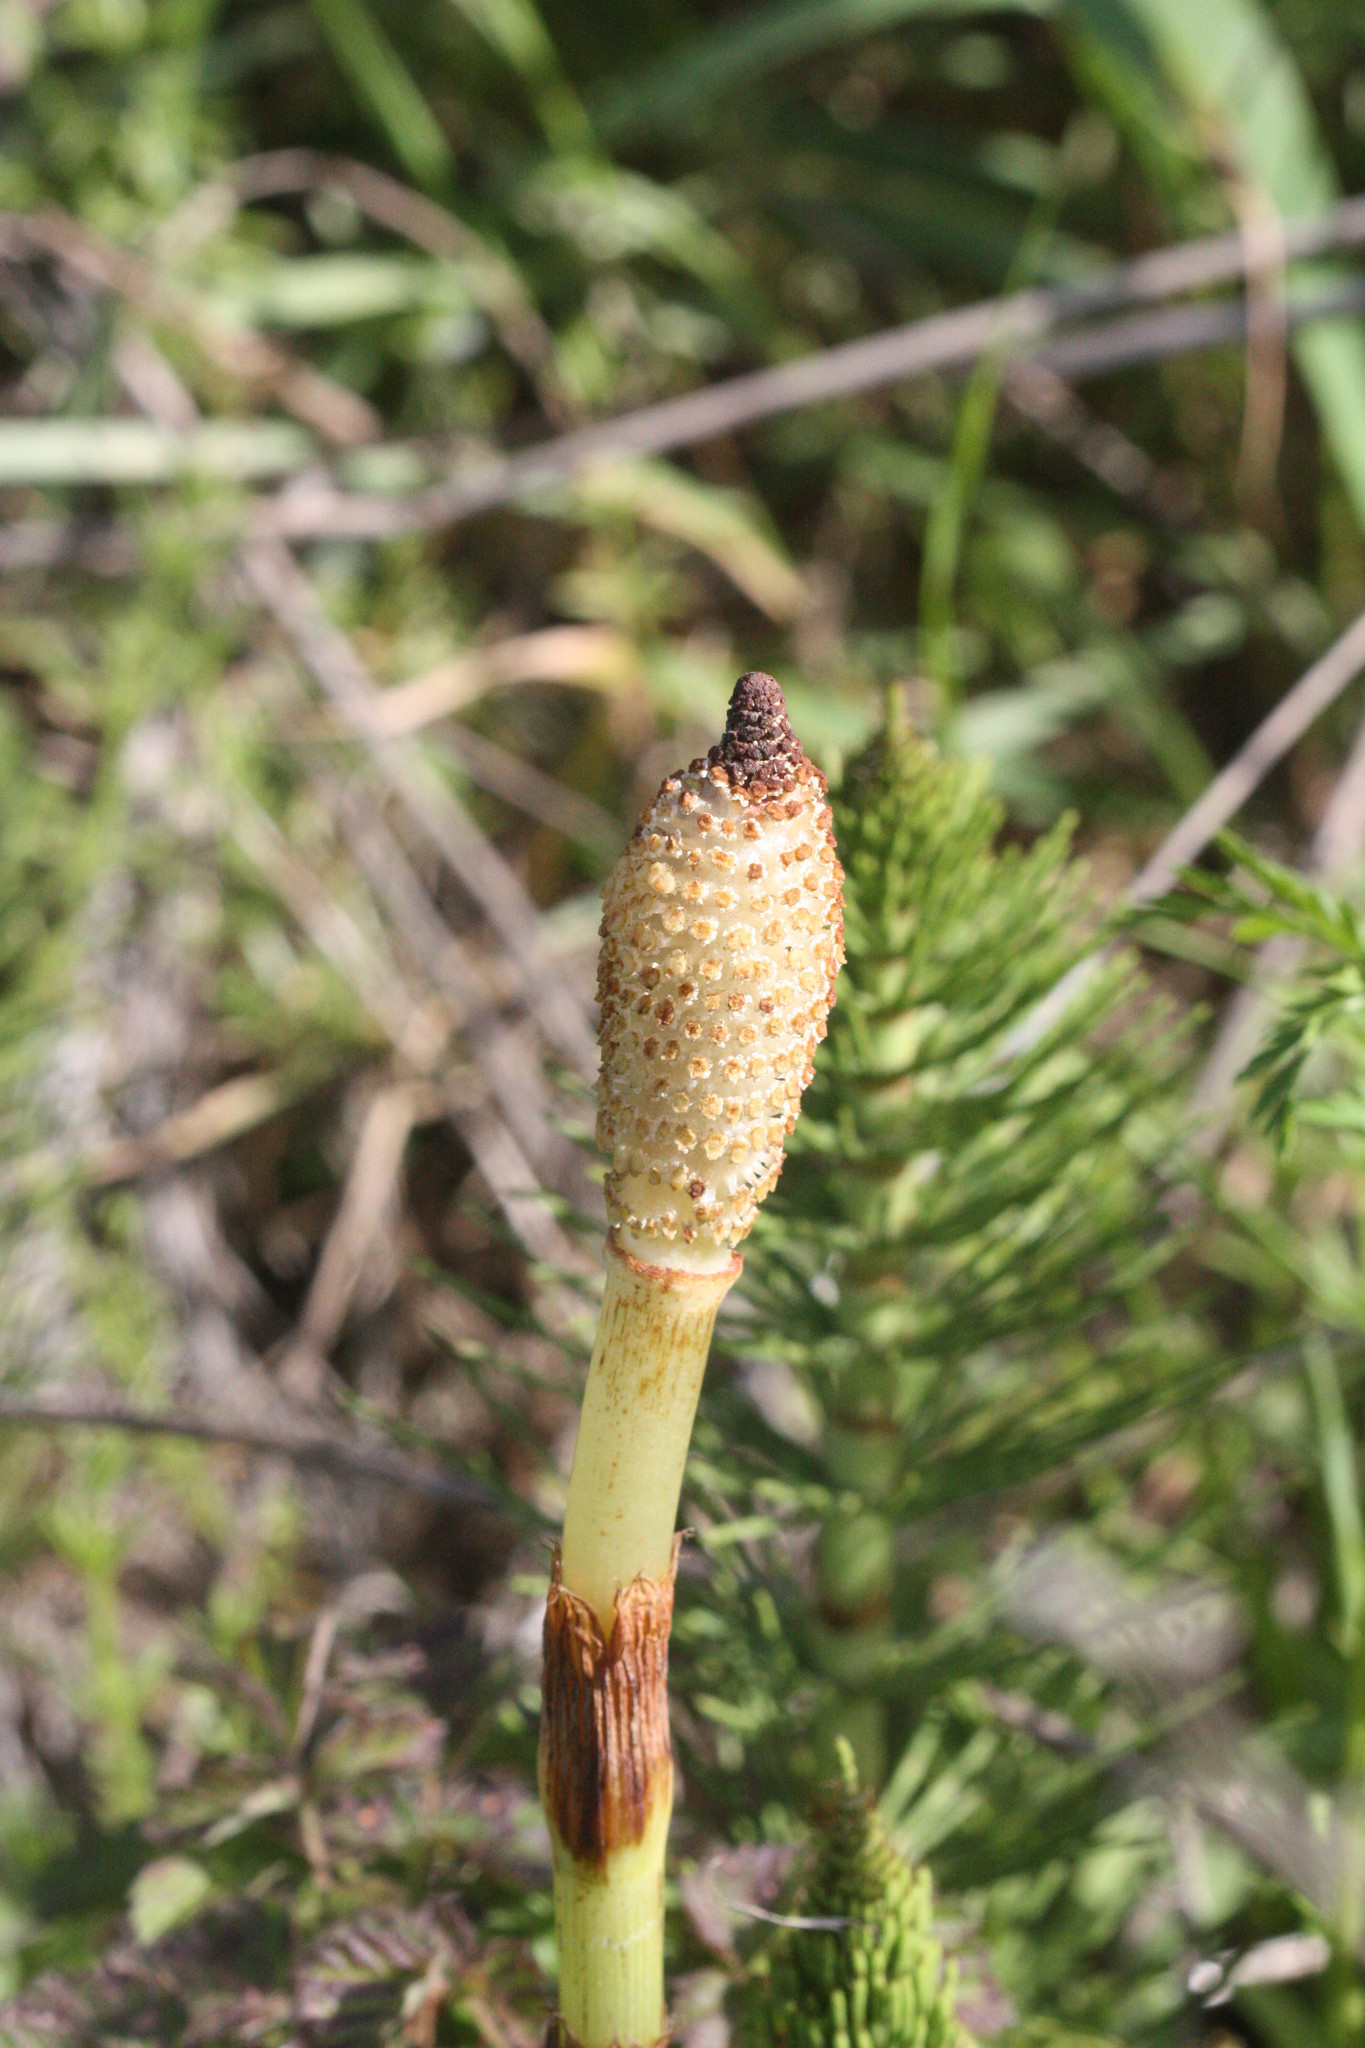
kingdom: Plantae
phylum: Tracheophyta
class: Polypodiopsida
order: Equisetales
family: Equisetaceae
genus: Equisetum
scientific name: Equisetum telmateia
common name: Great horsetail
